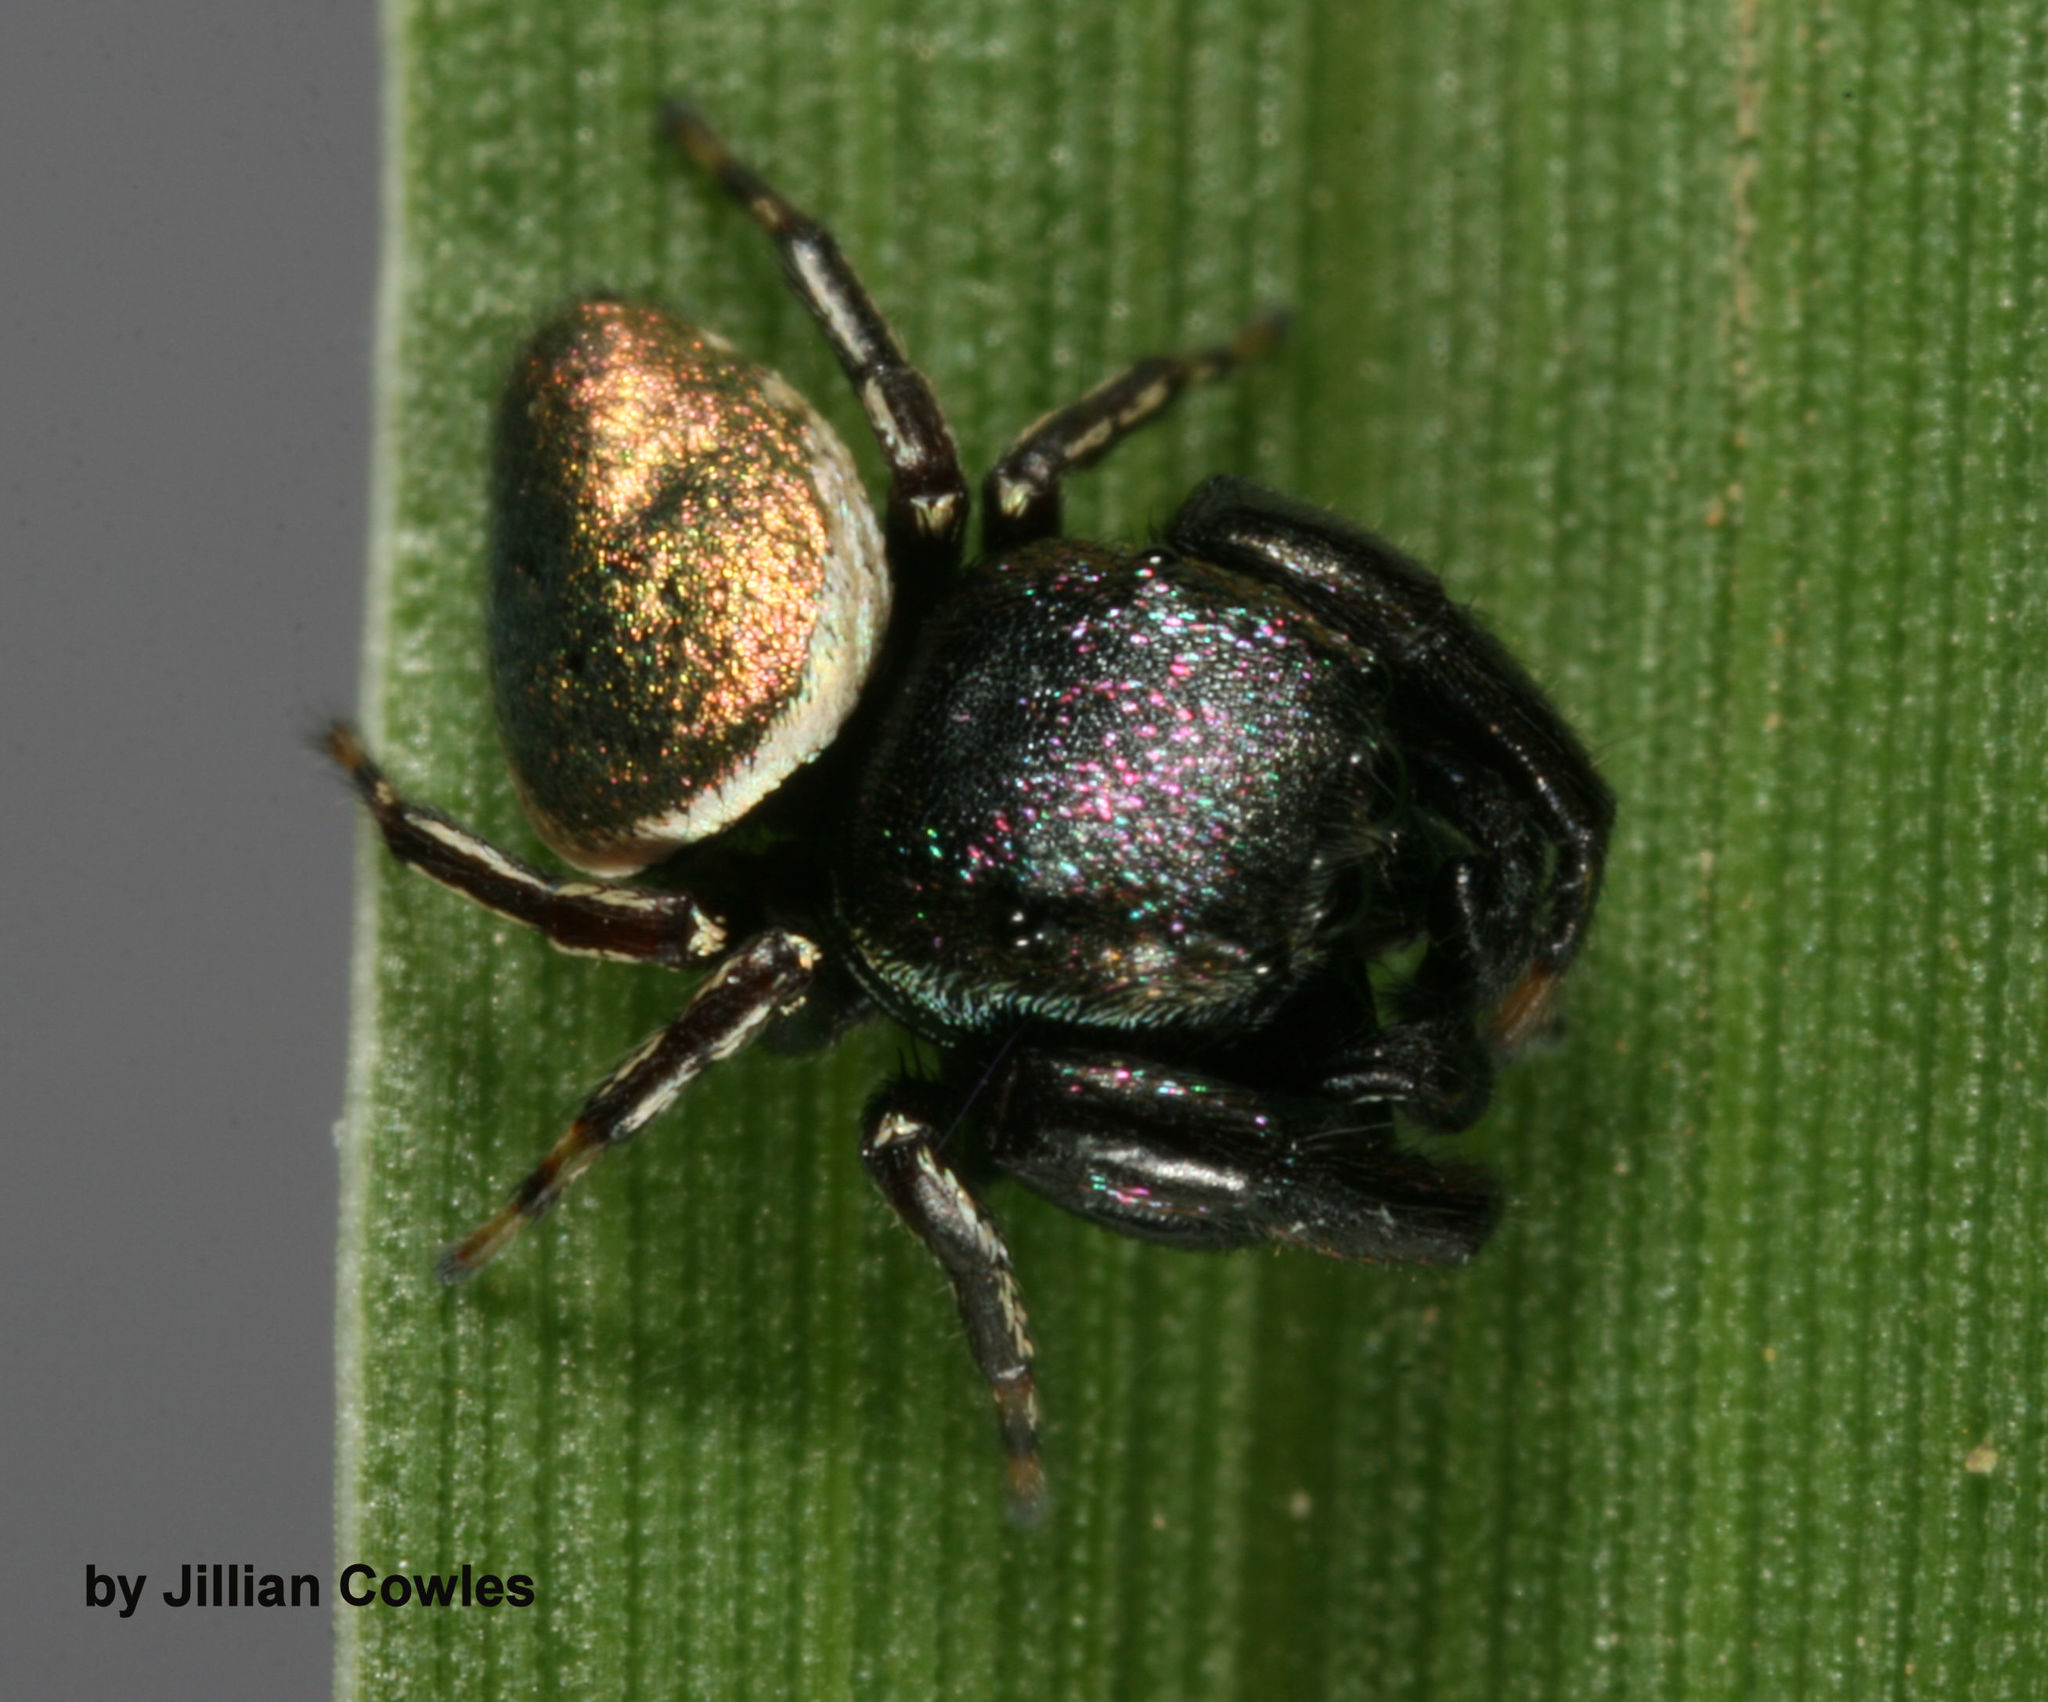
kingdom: Animalia
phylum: Arthropoda
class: Arachnida
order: Araneae
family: Salticidae
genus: Sassacus
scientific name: Sassacus papenhoei
